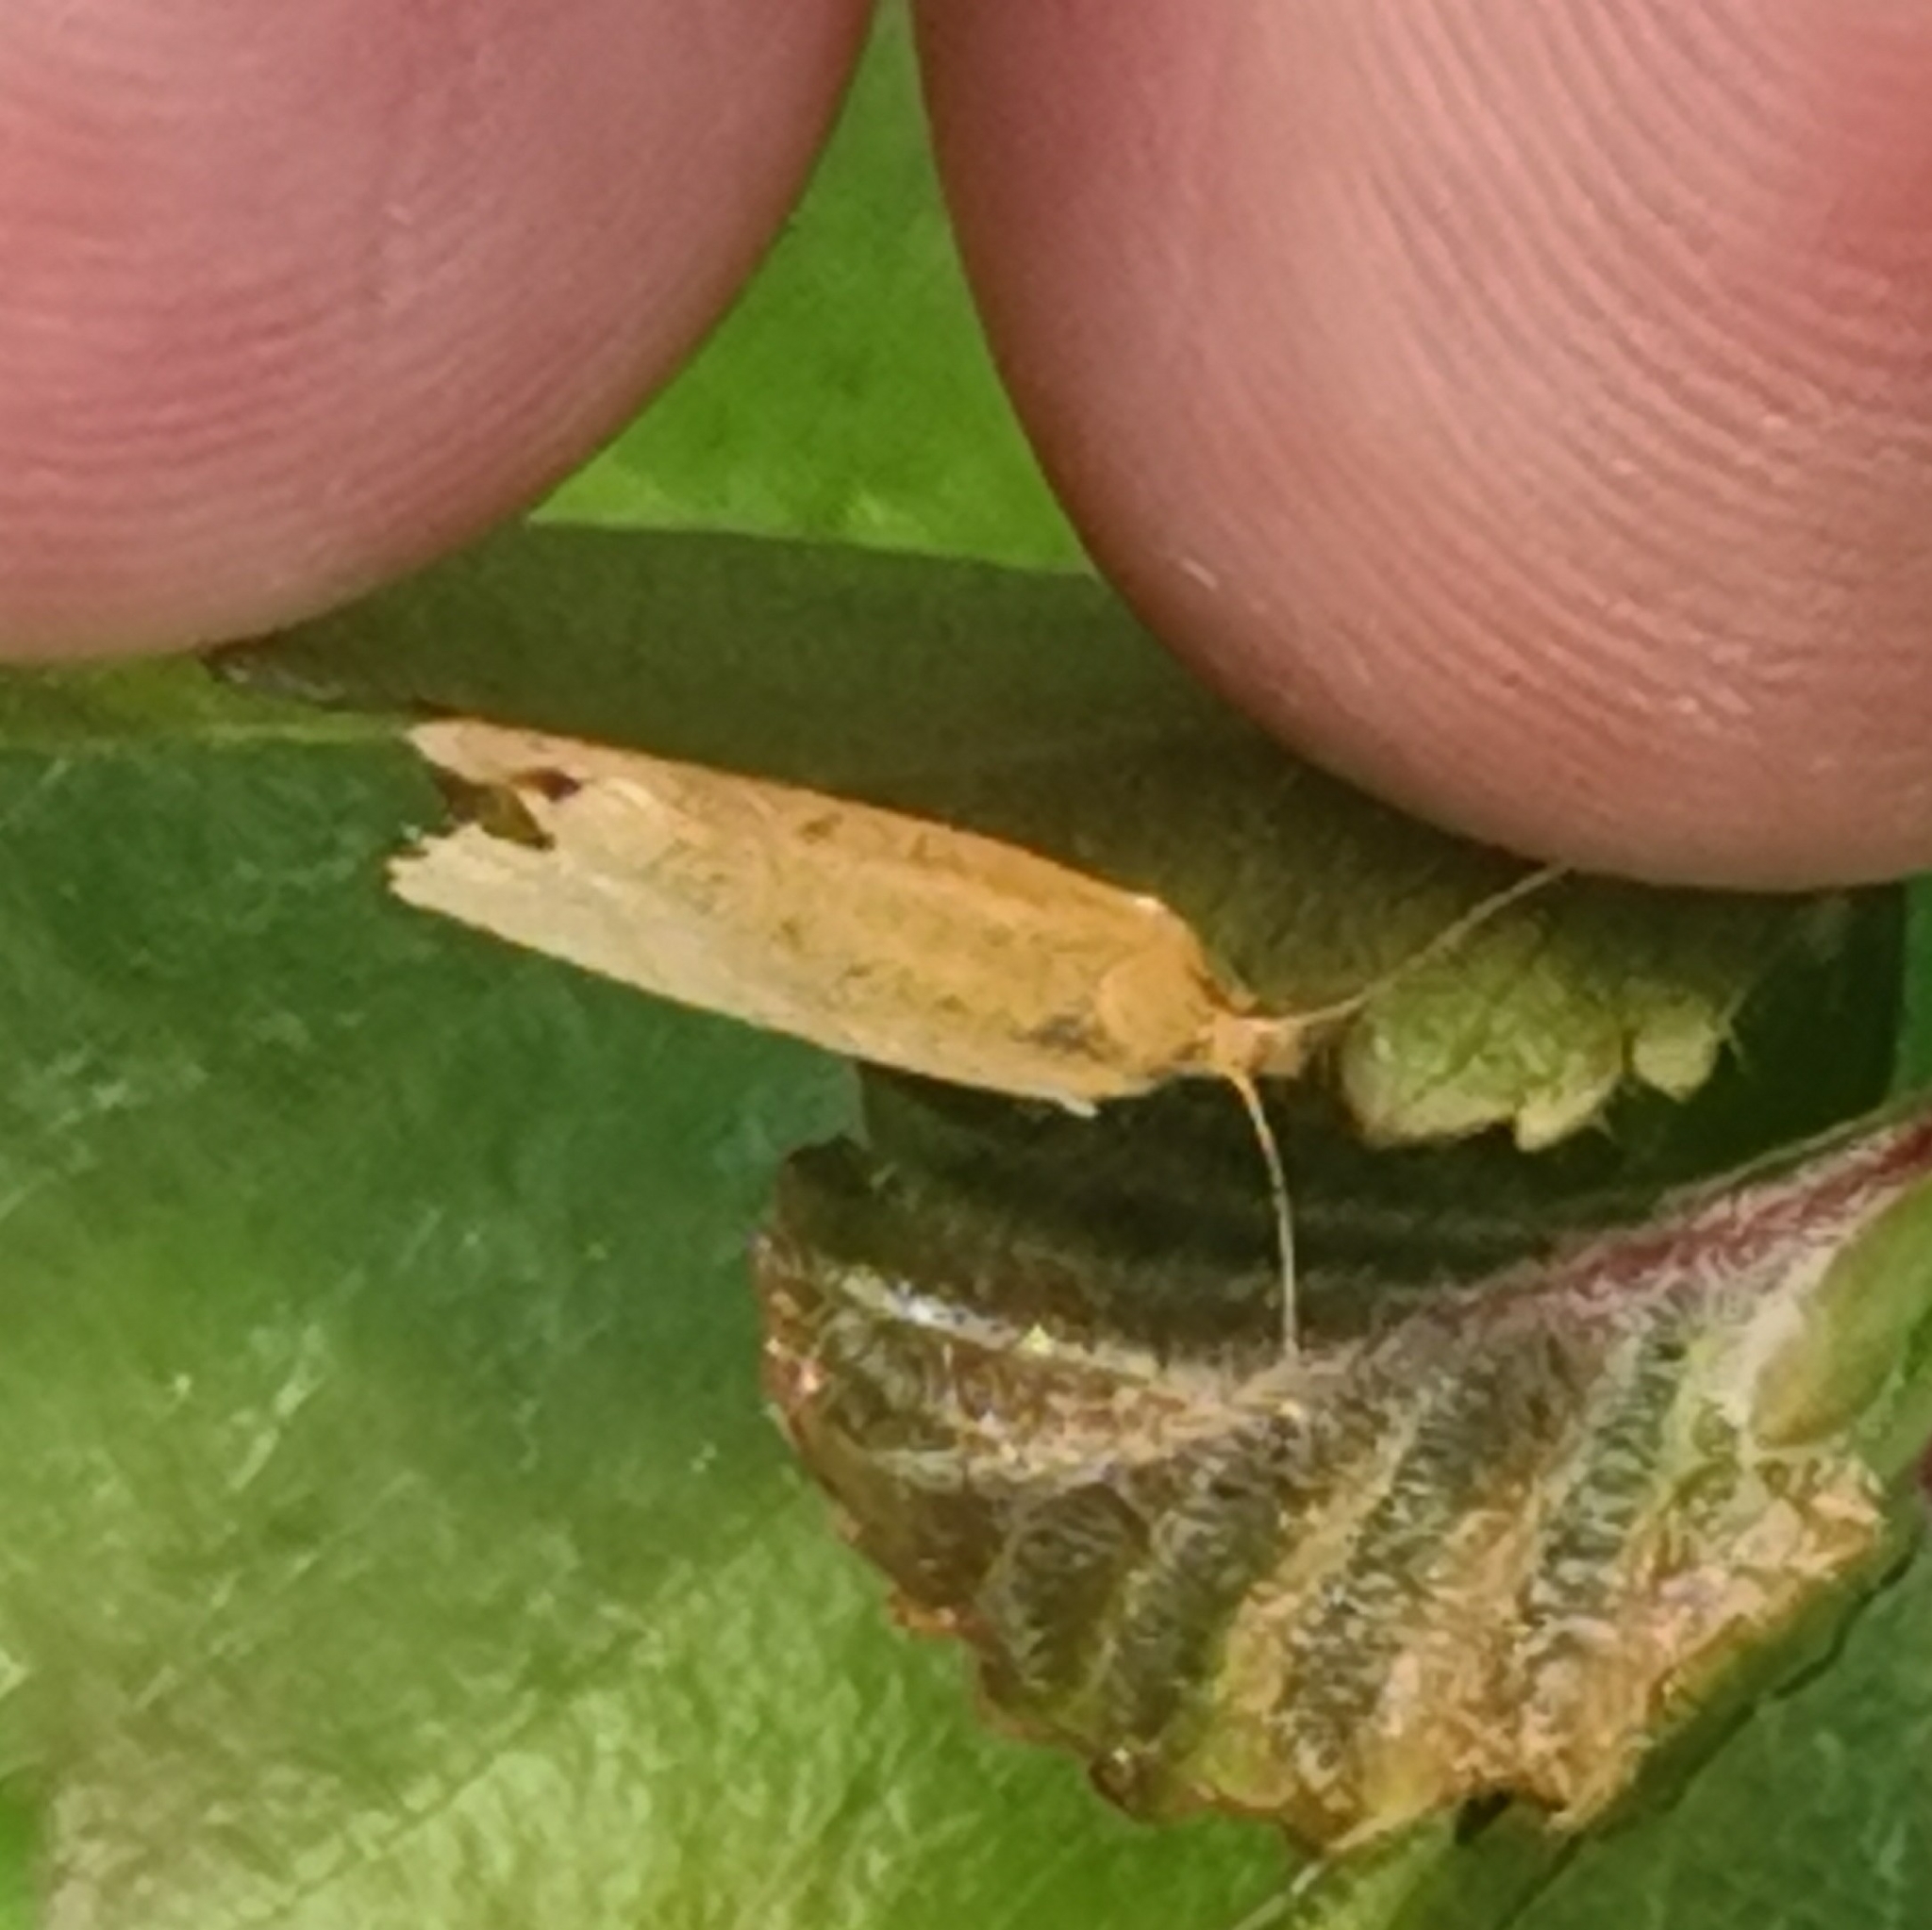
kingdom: Animalia
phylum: Arthropoda
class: Insecta
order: Lepidoptera
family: Tortricidae
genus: Eana
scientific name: Eana osseana
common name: Dotted shade
